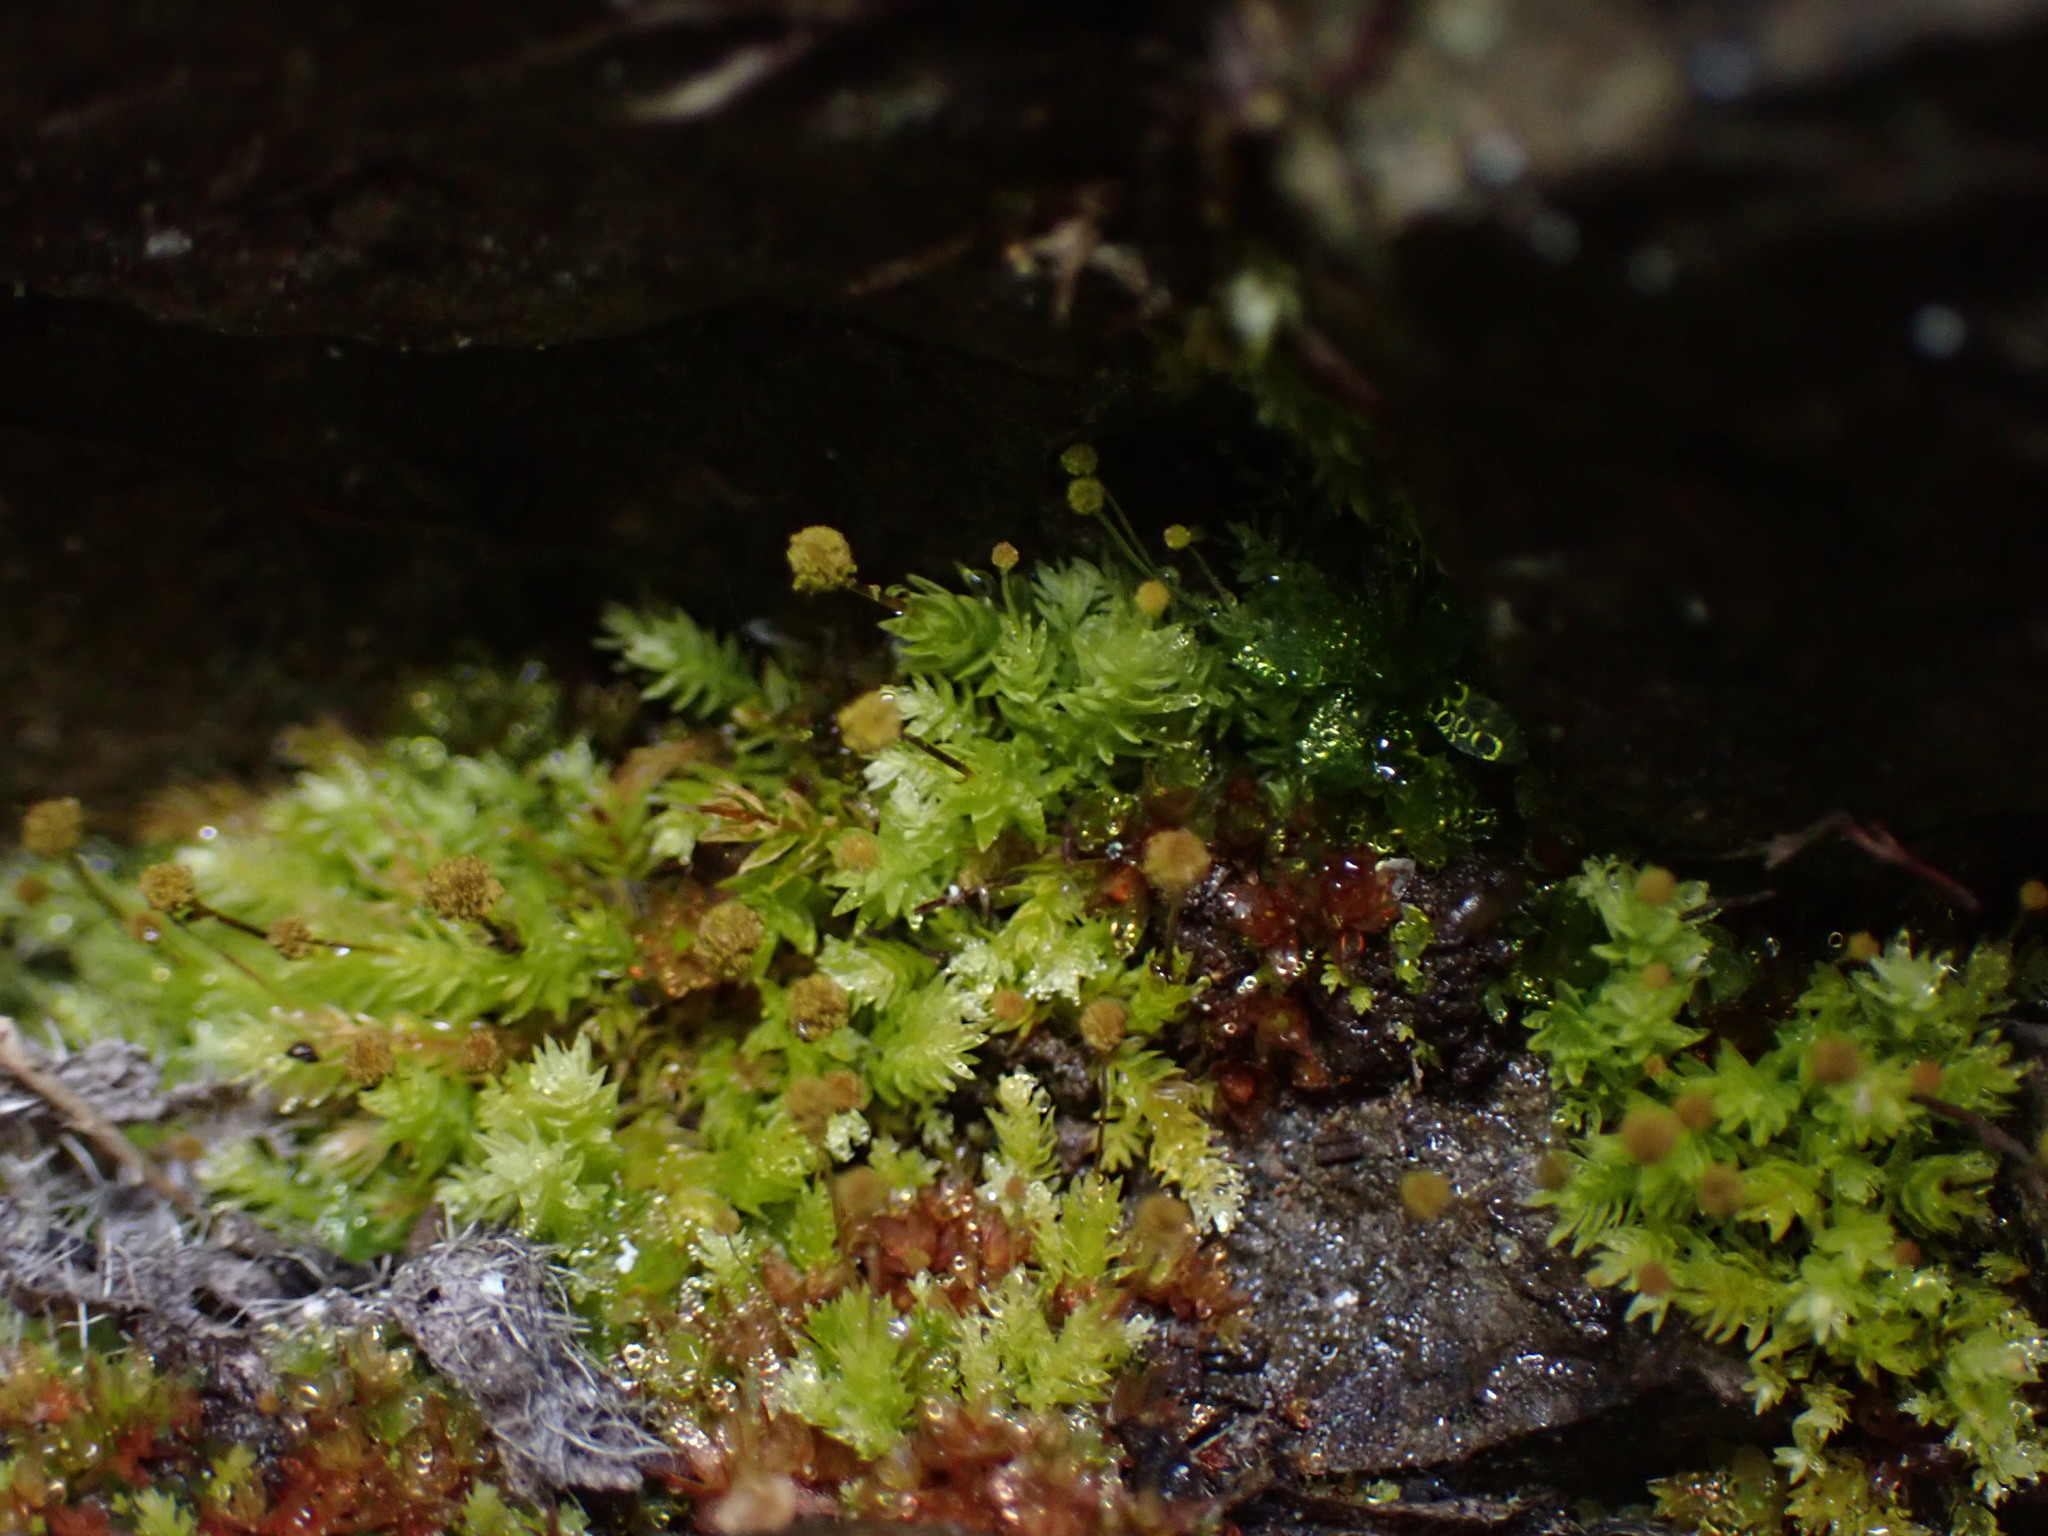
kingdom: Plantae
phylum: Bryophyta
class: Bryopsida
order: Aulacomniales
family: Aulacomniaceae
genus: Aulacomnium
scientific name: Aulacomnium androgynum
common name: Little groove moss
